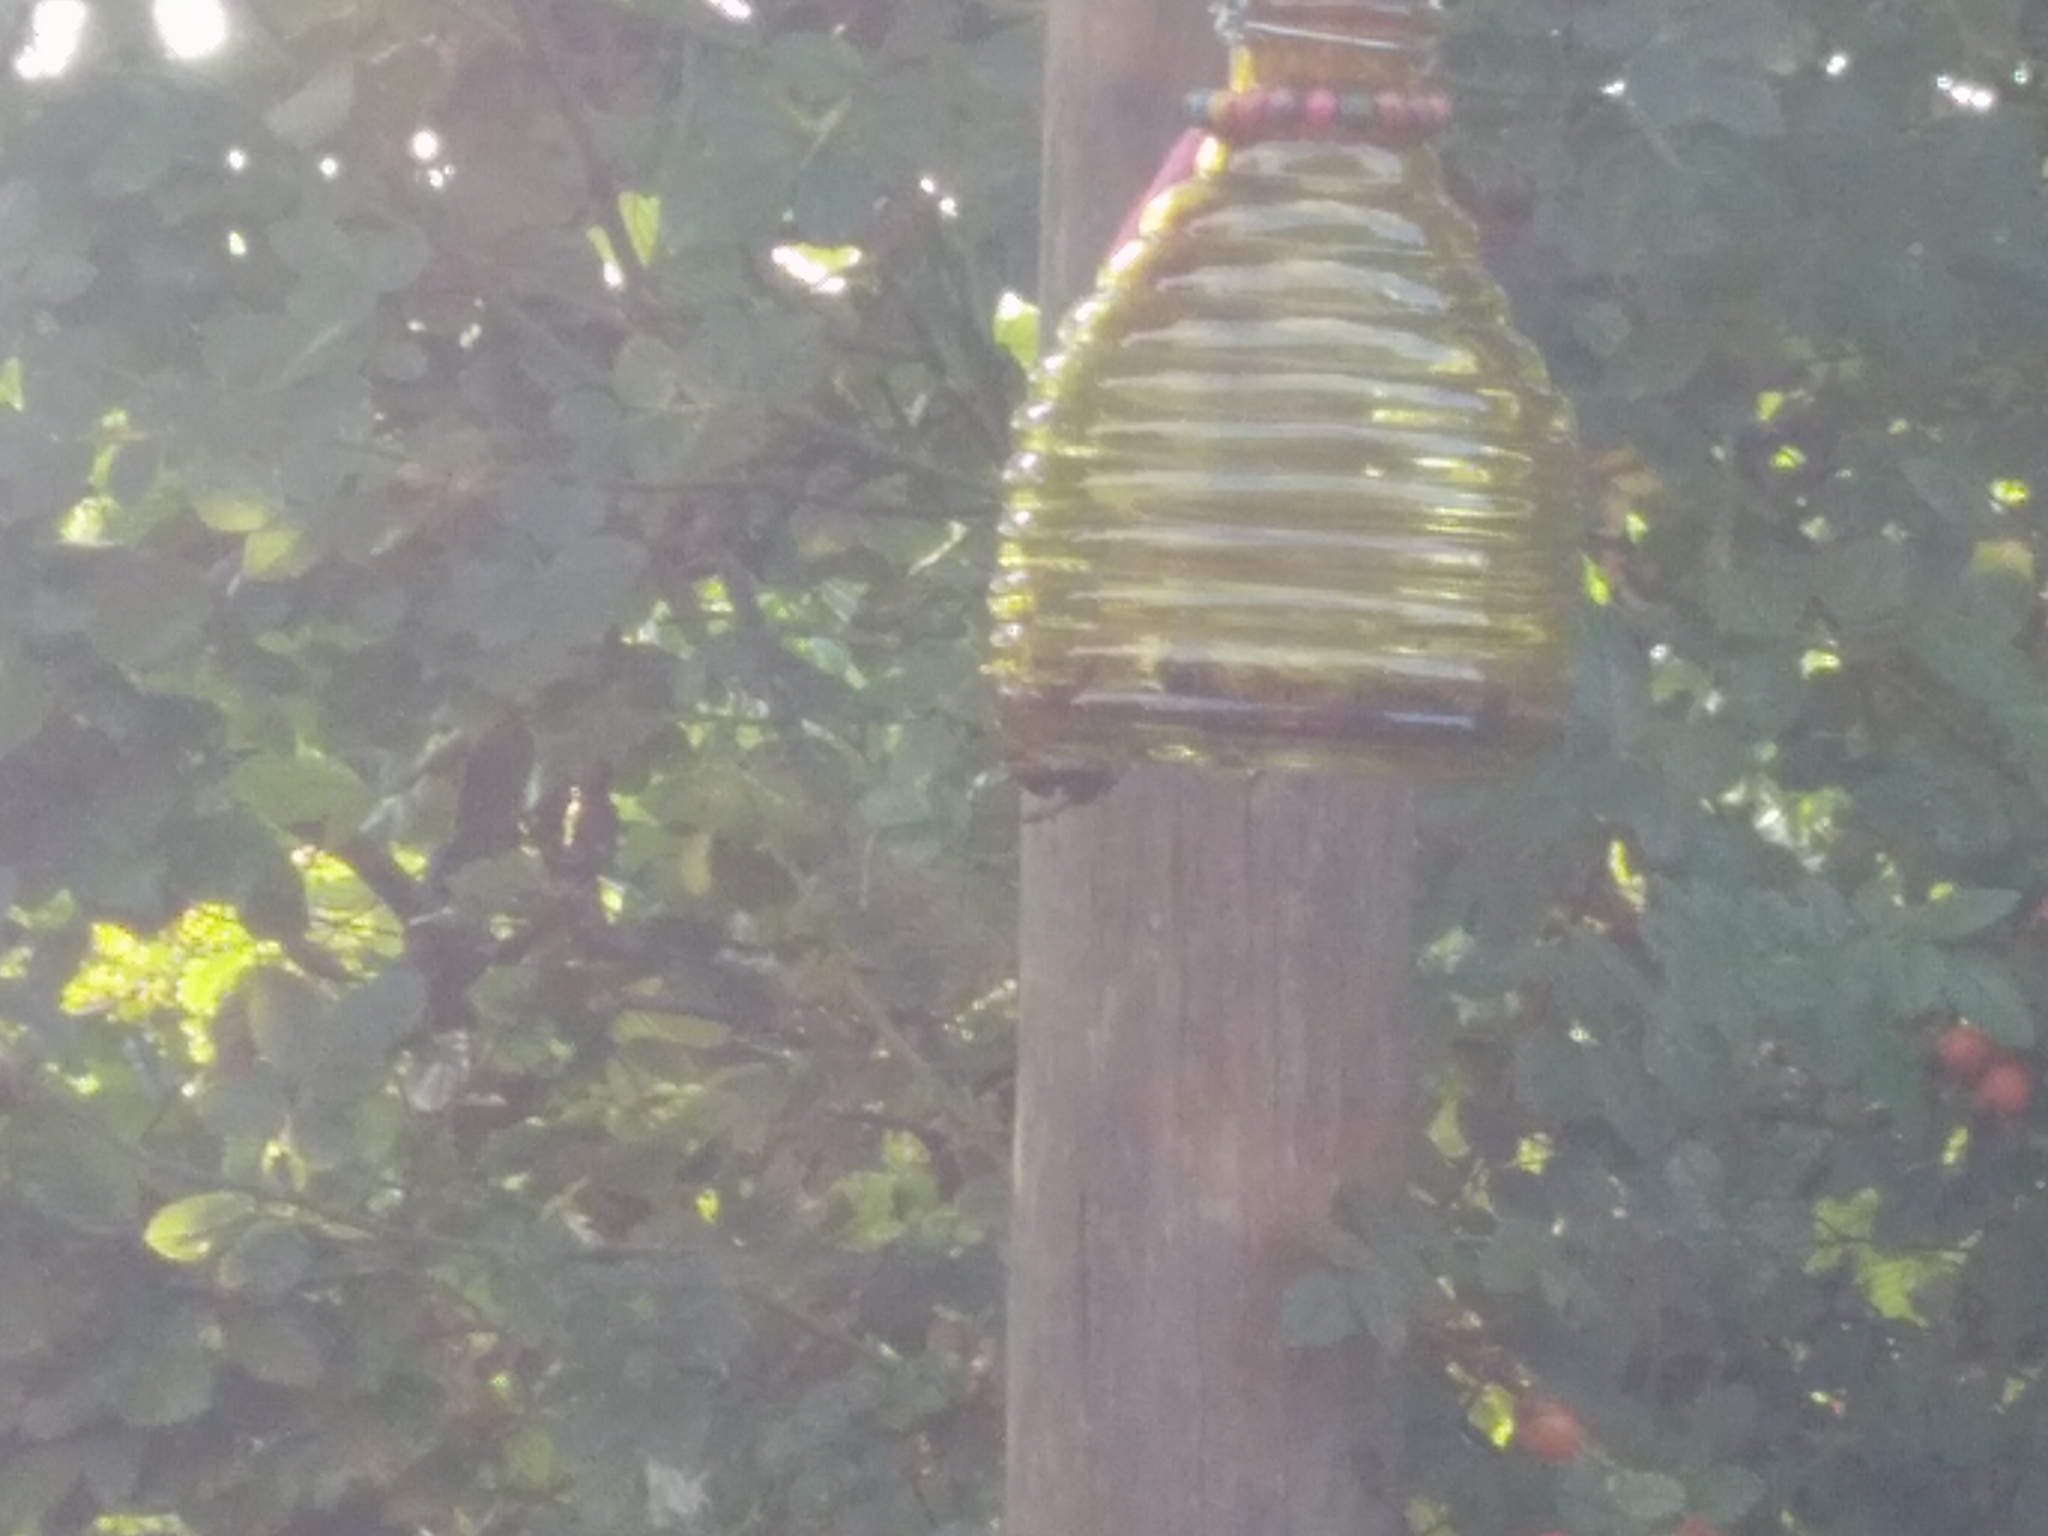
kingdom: Animalia
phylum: Arthropoda
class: Insecta
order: Hymenoptera
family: Vespidae
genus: Vespa
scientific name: Vespa velutina
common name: Asian hornet
